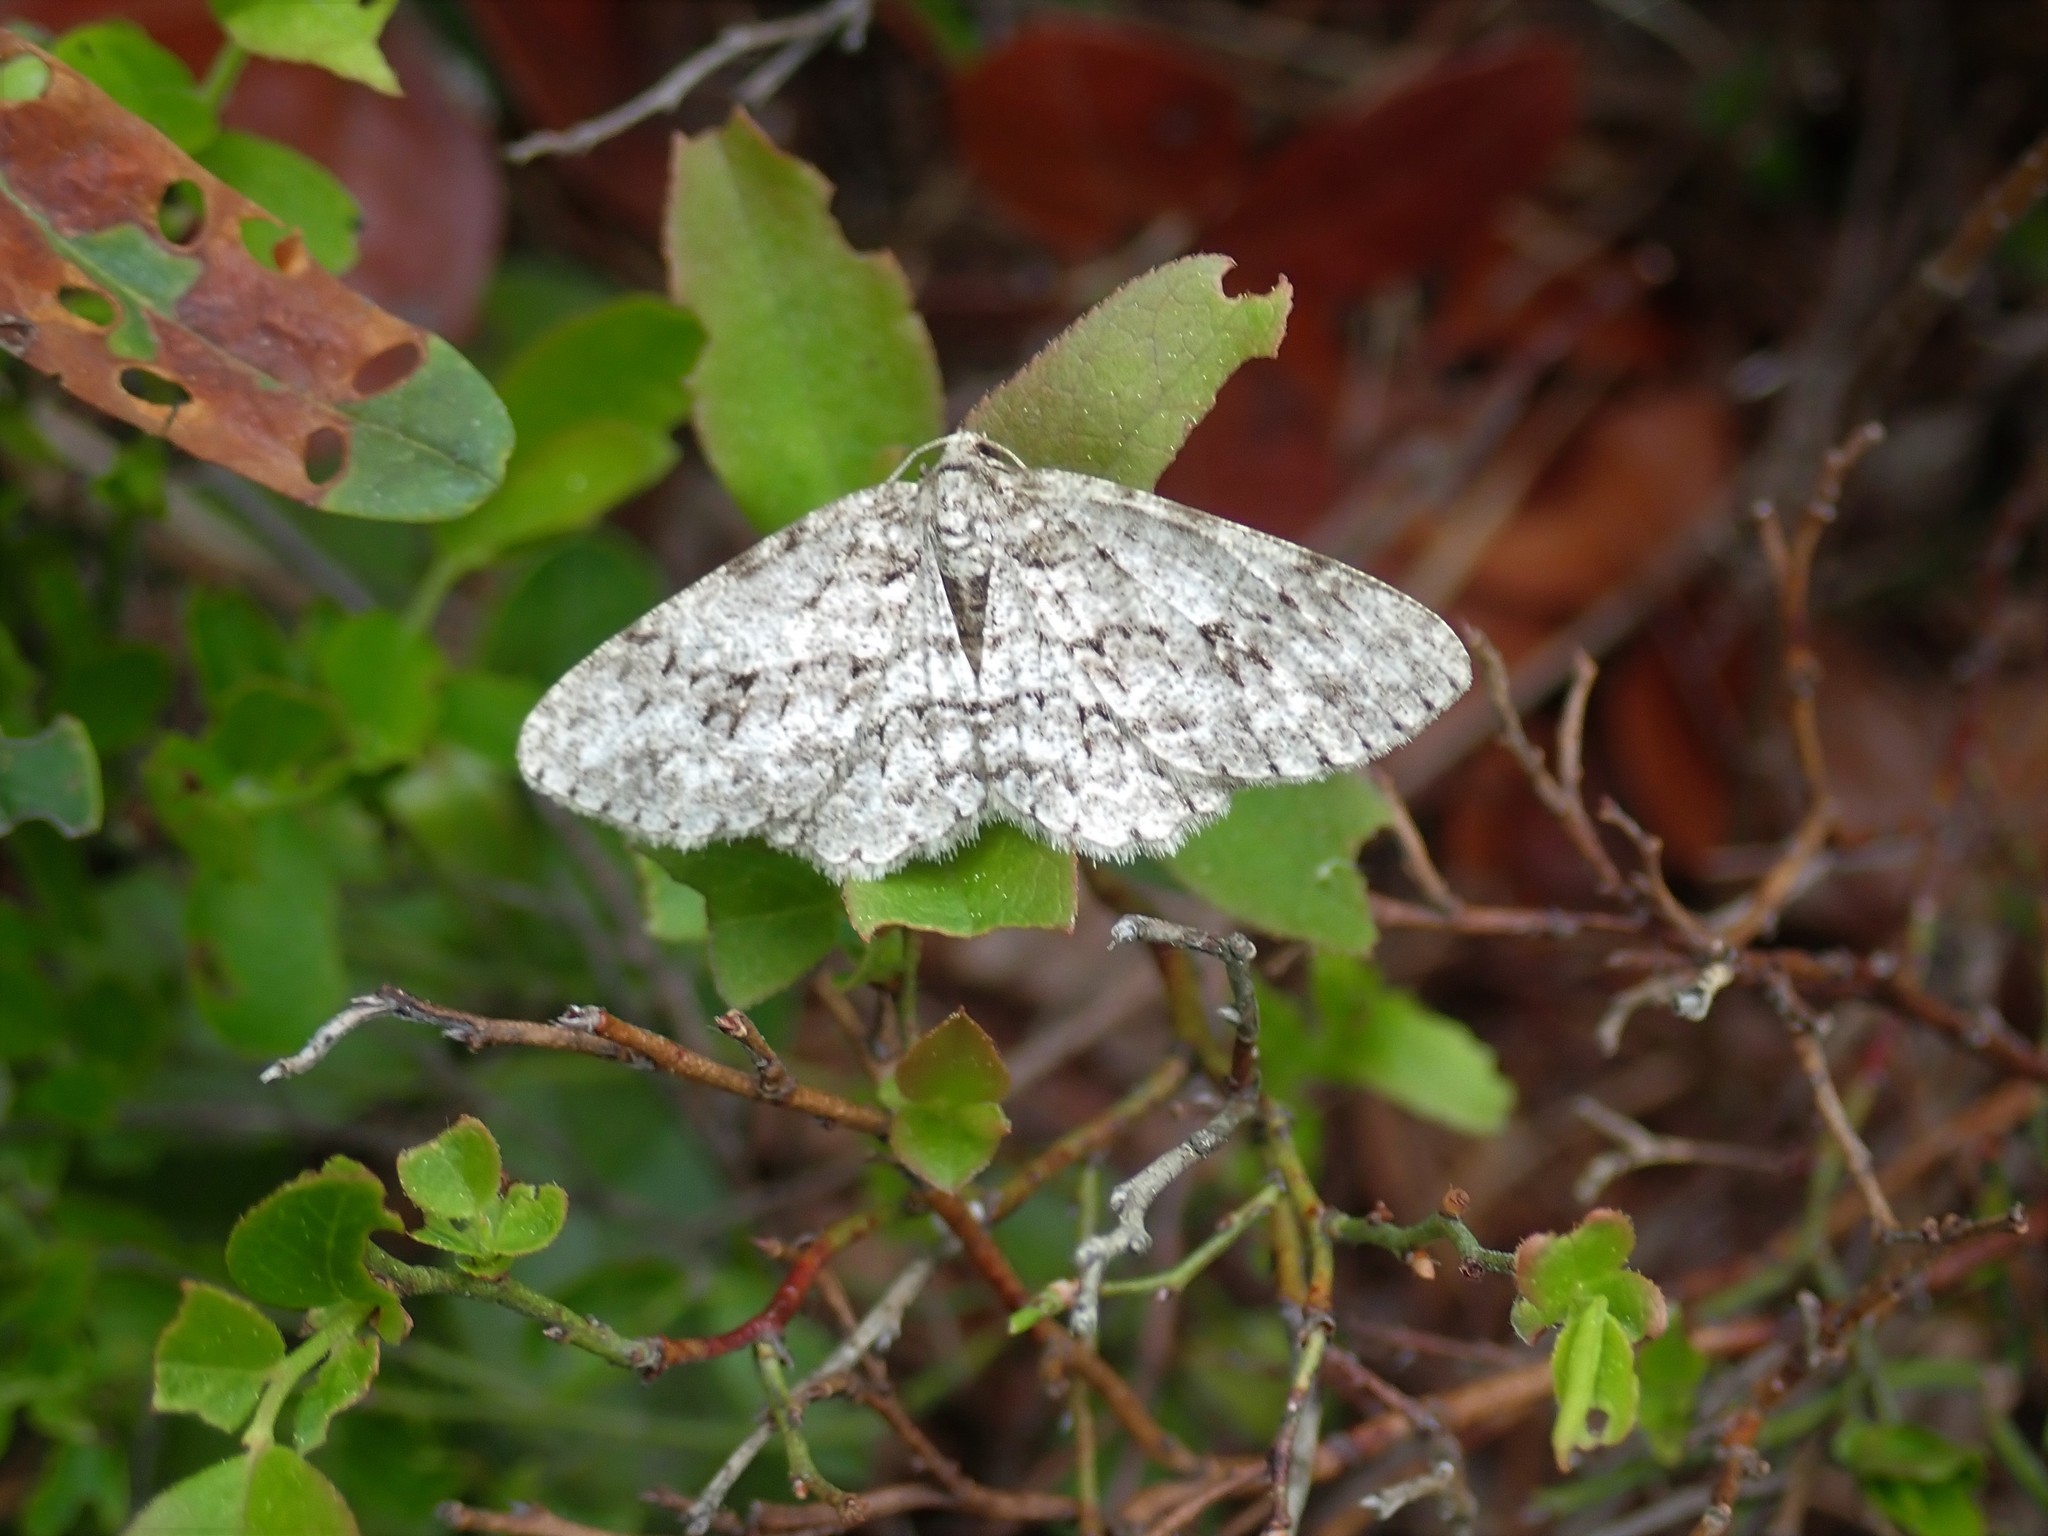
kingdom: Animalia
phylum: Arthropoda
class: Insecta
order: Lepidoptera
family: Geometridae
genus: Ectropis
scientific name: Ectropis crepuscularia
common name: Engrailed
